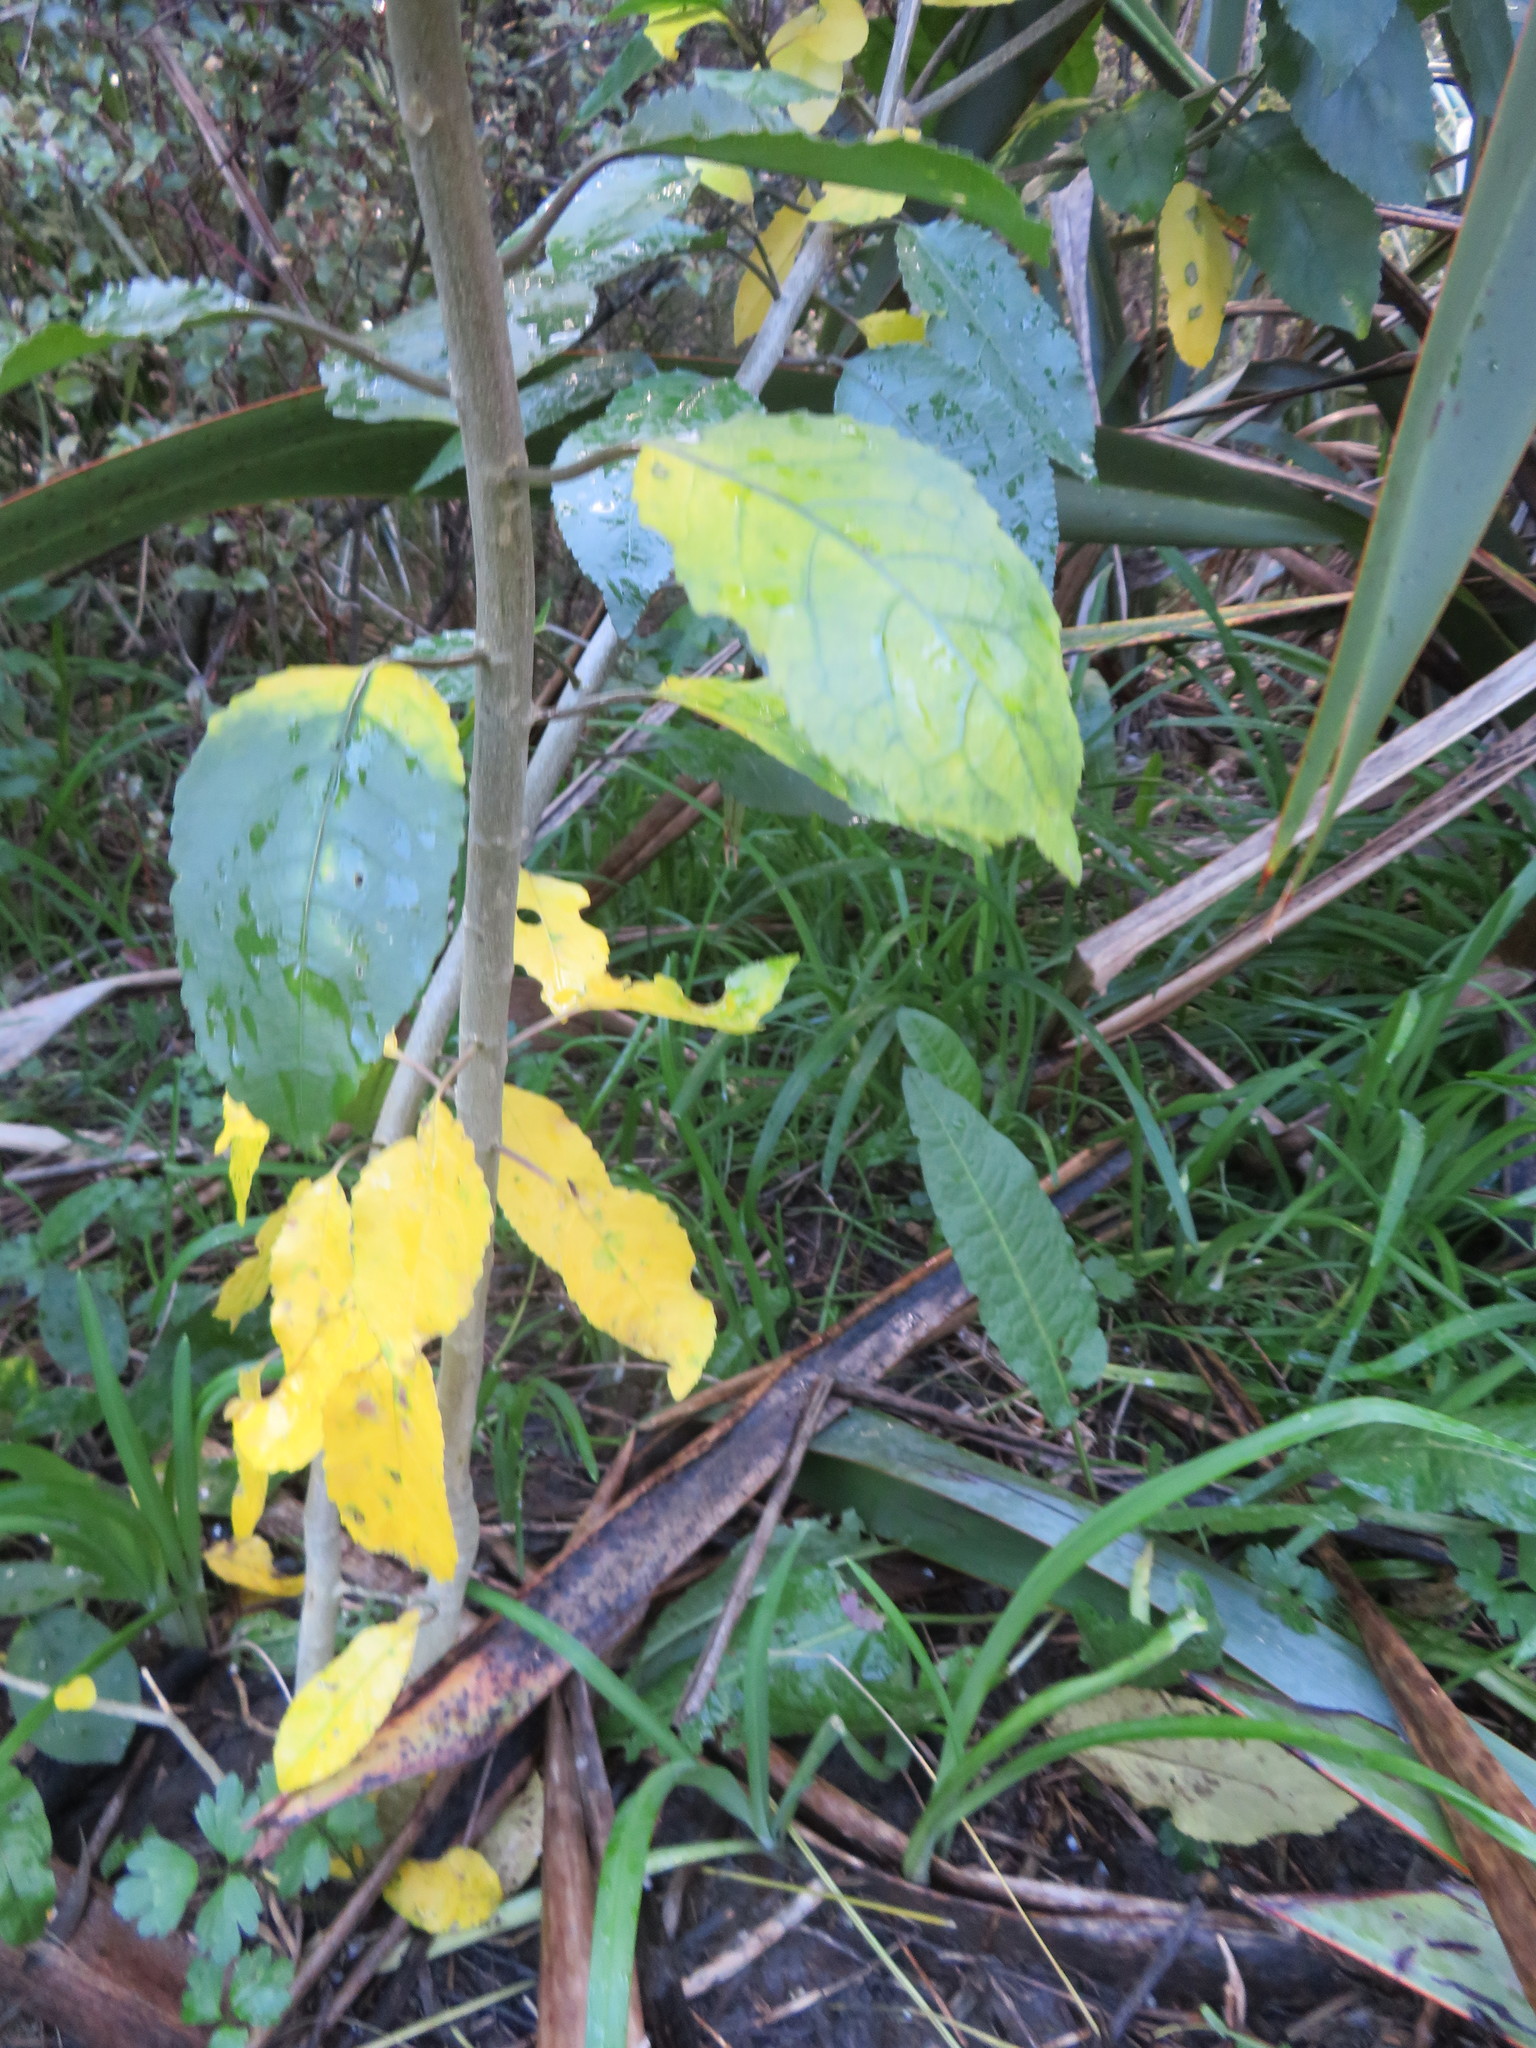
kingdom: Plantae
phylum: Tracheophyta
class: Magnoliopsida
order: Malpighiales
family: Violaceae
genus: Melicytus
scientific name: Melicytus ramiflorus
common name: Mahoe
